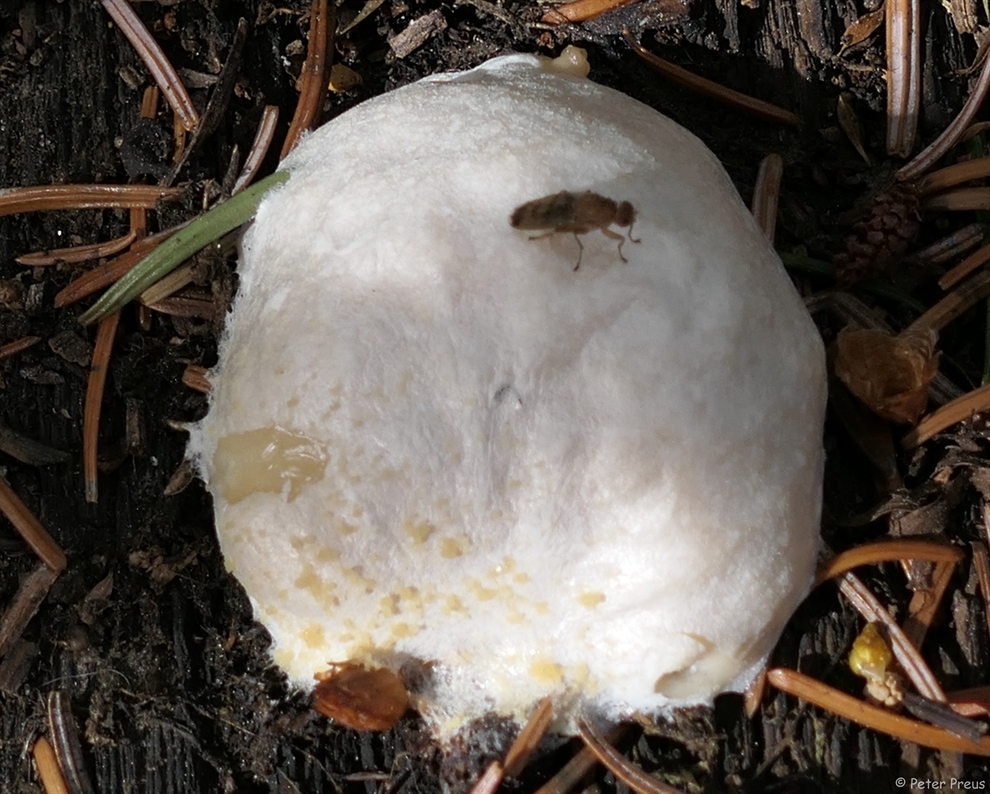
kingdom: Protozoa
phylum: Mycetozoa
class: Myxomycetes
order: Cribrariales
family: Tubiferaceae
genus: Reticularia
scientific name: Reticularia lycoperdon
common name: False puffball
